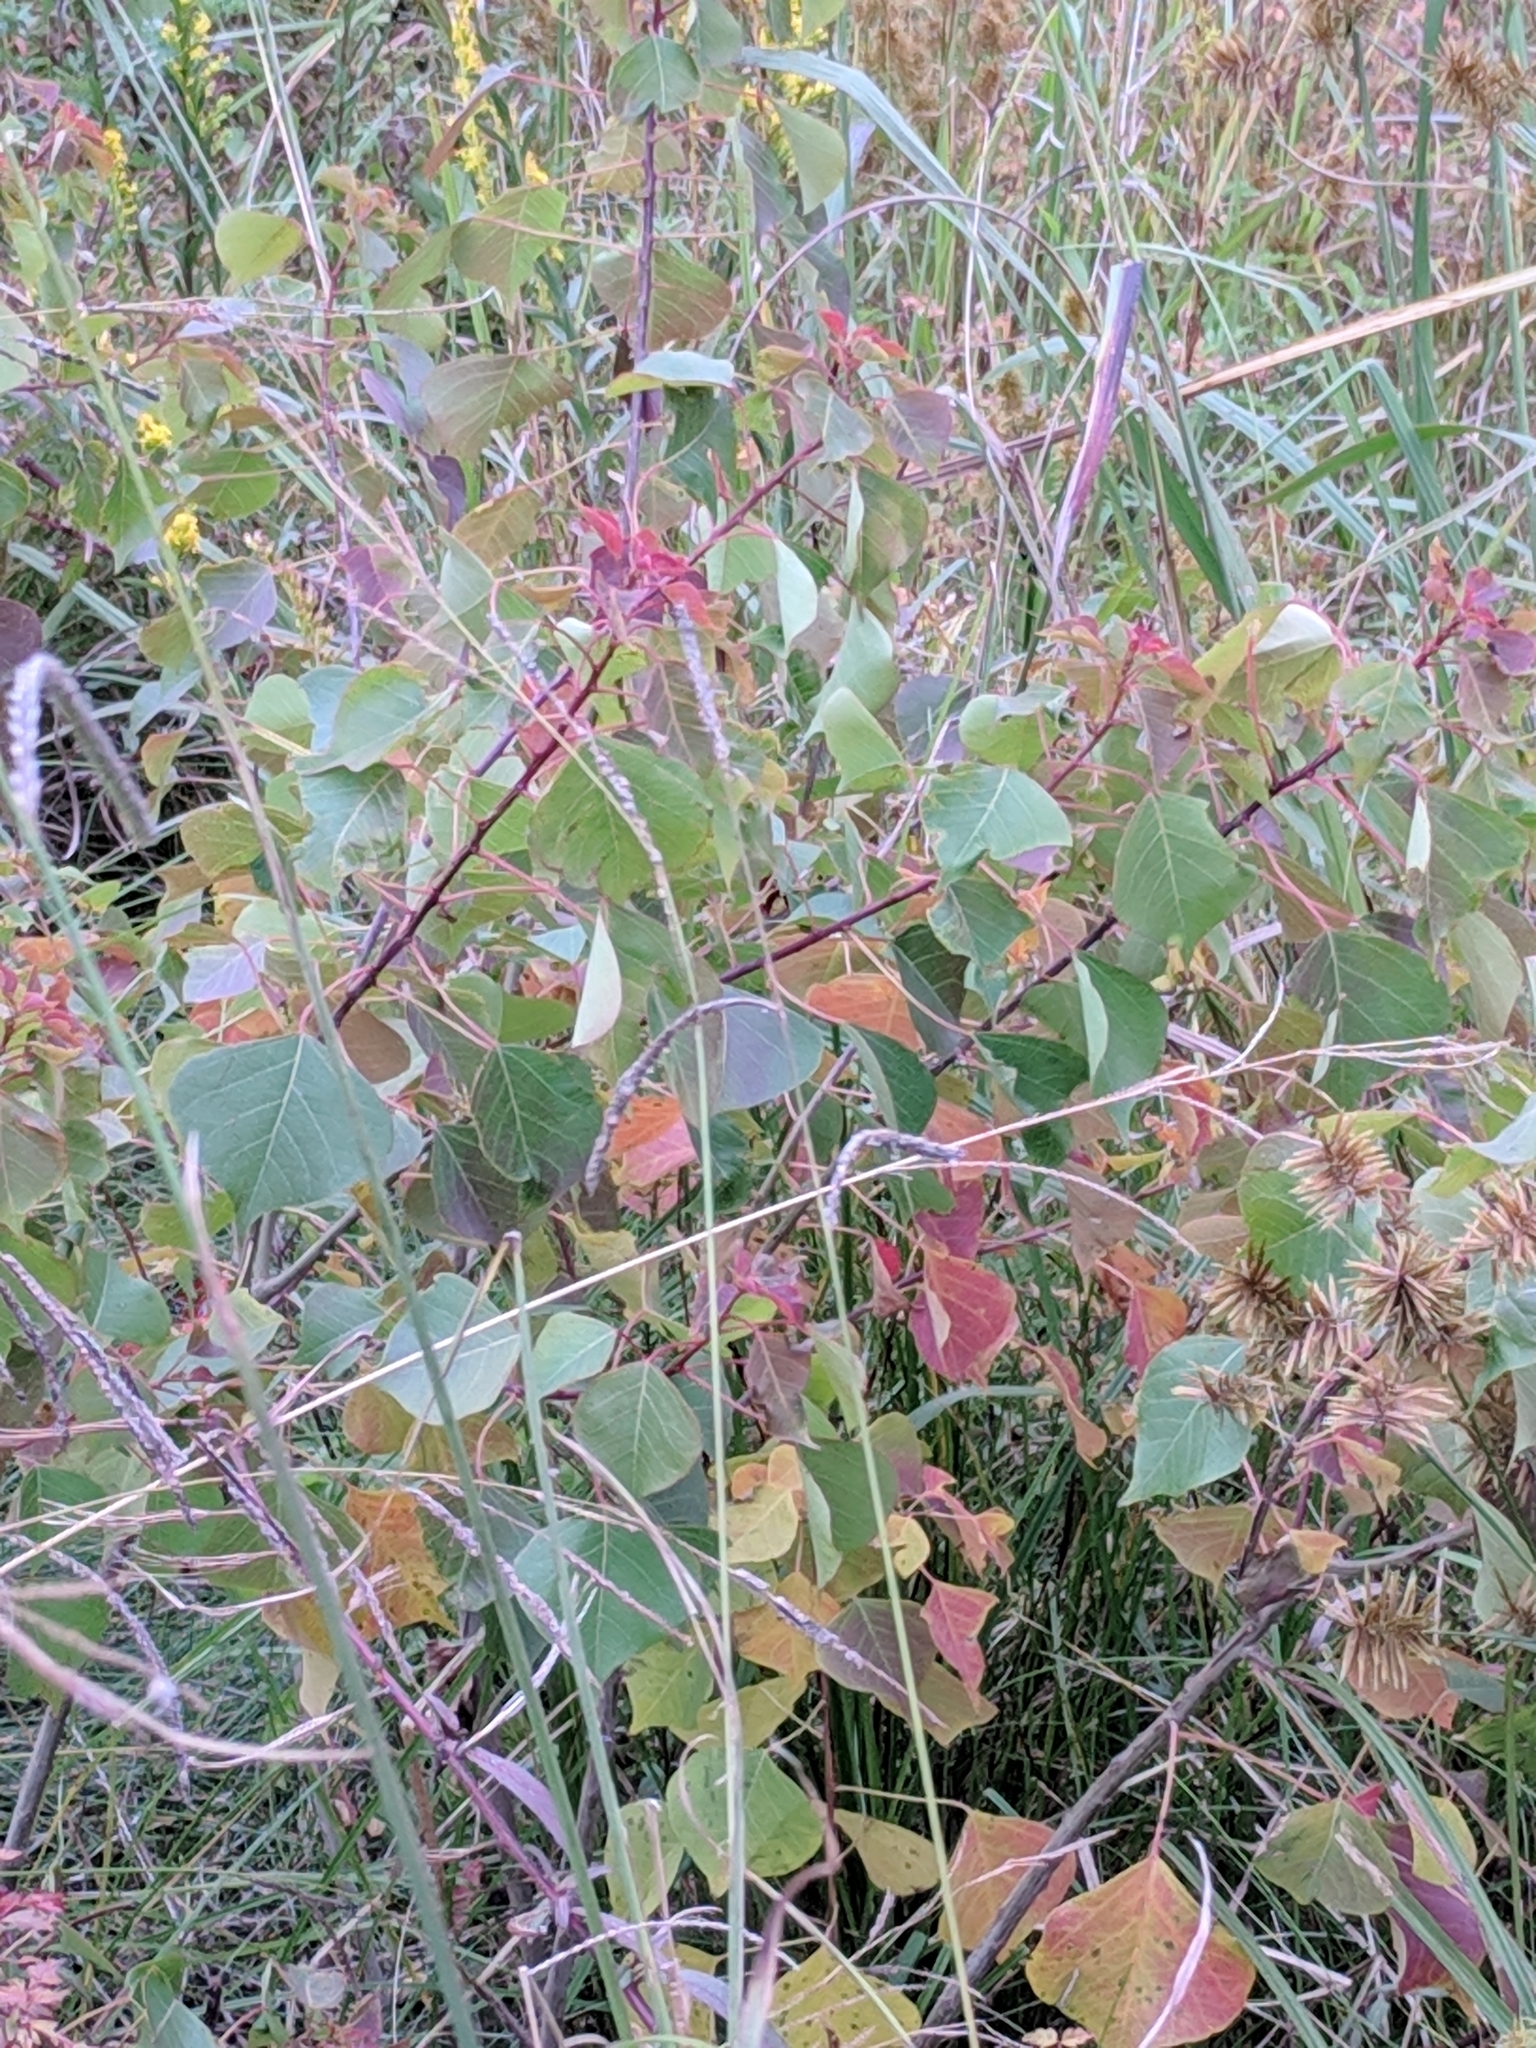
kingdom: Plantae
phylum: Tracheophyta
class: Magnoliopsida
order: Malpighiales
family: Euphorbiaceae
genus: Triadica
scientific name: Triadica sebifera
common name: Chinese tallow
